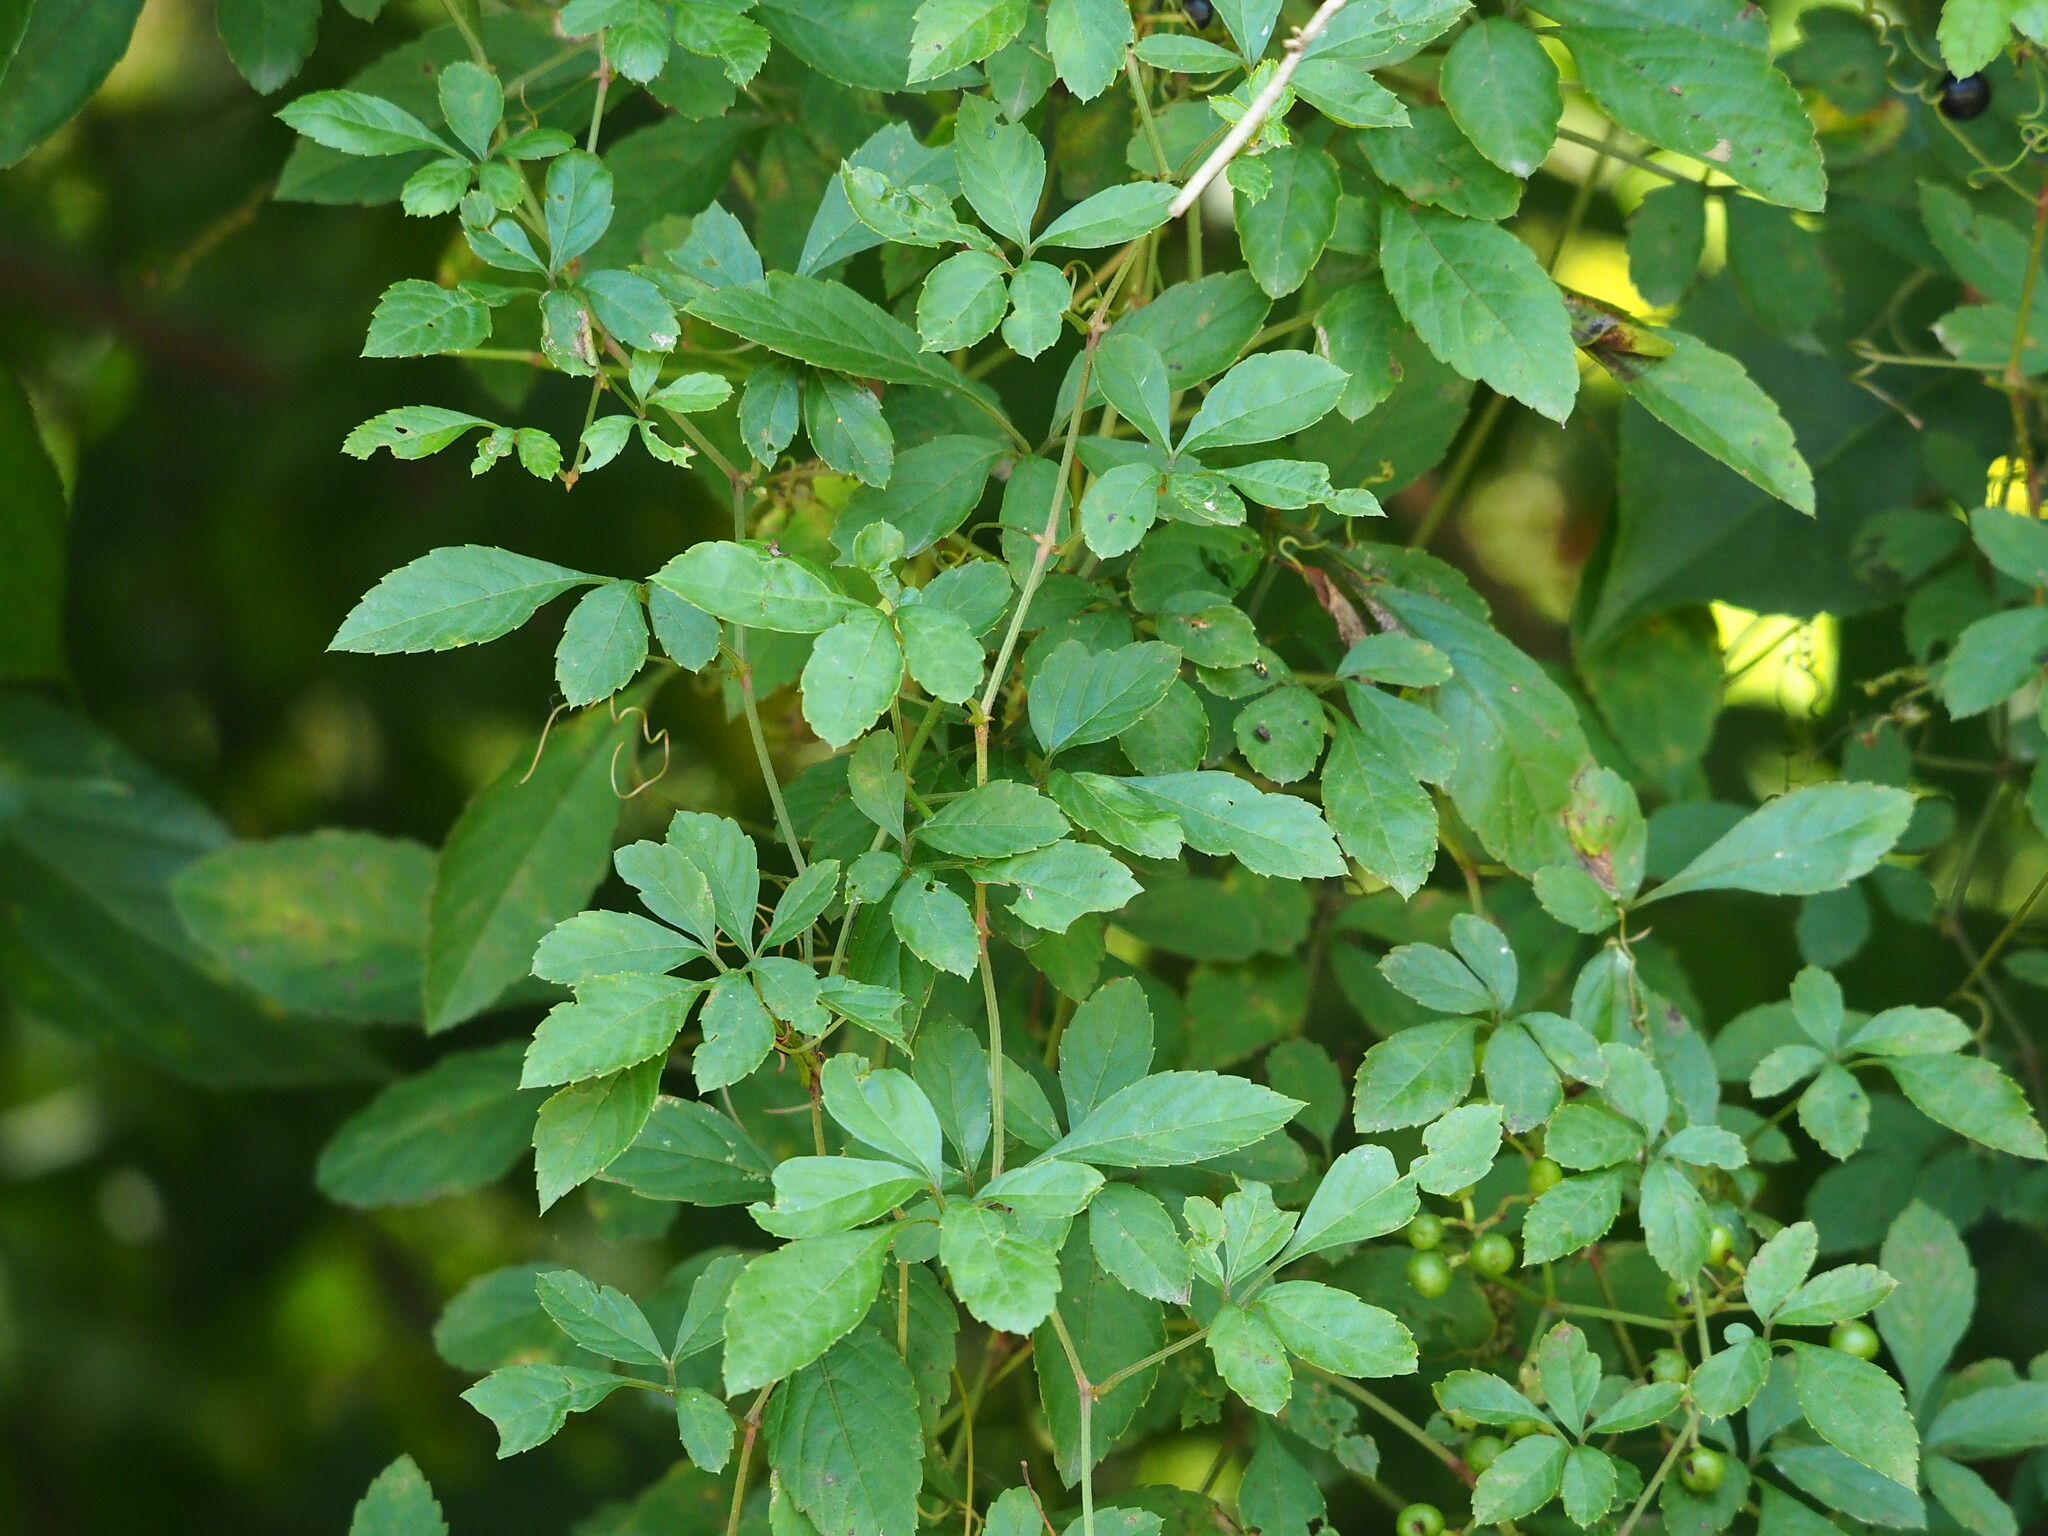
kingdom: Plantae
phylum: Tracheophyta
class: Magnoliopsida
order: Vitales
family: Vitaceae
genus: Causonis
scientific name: Causonis japonica
